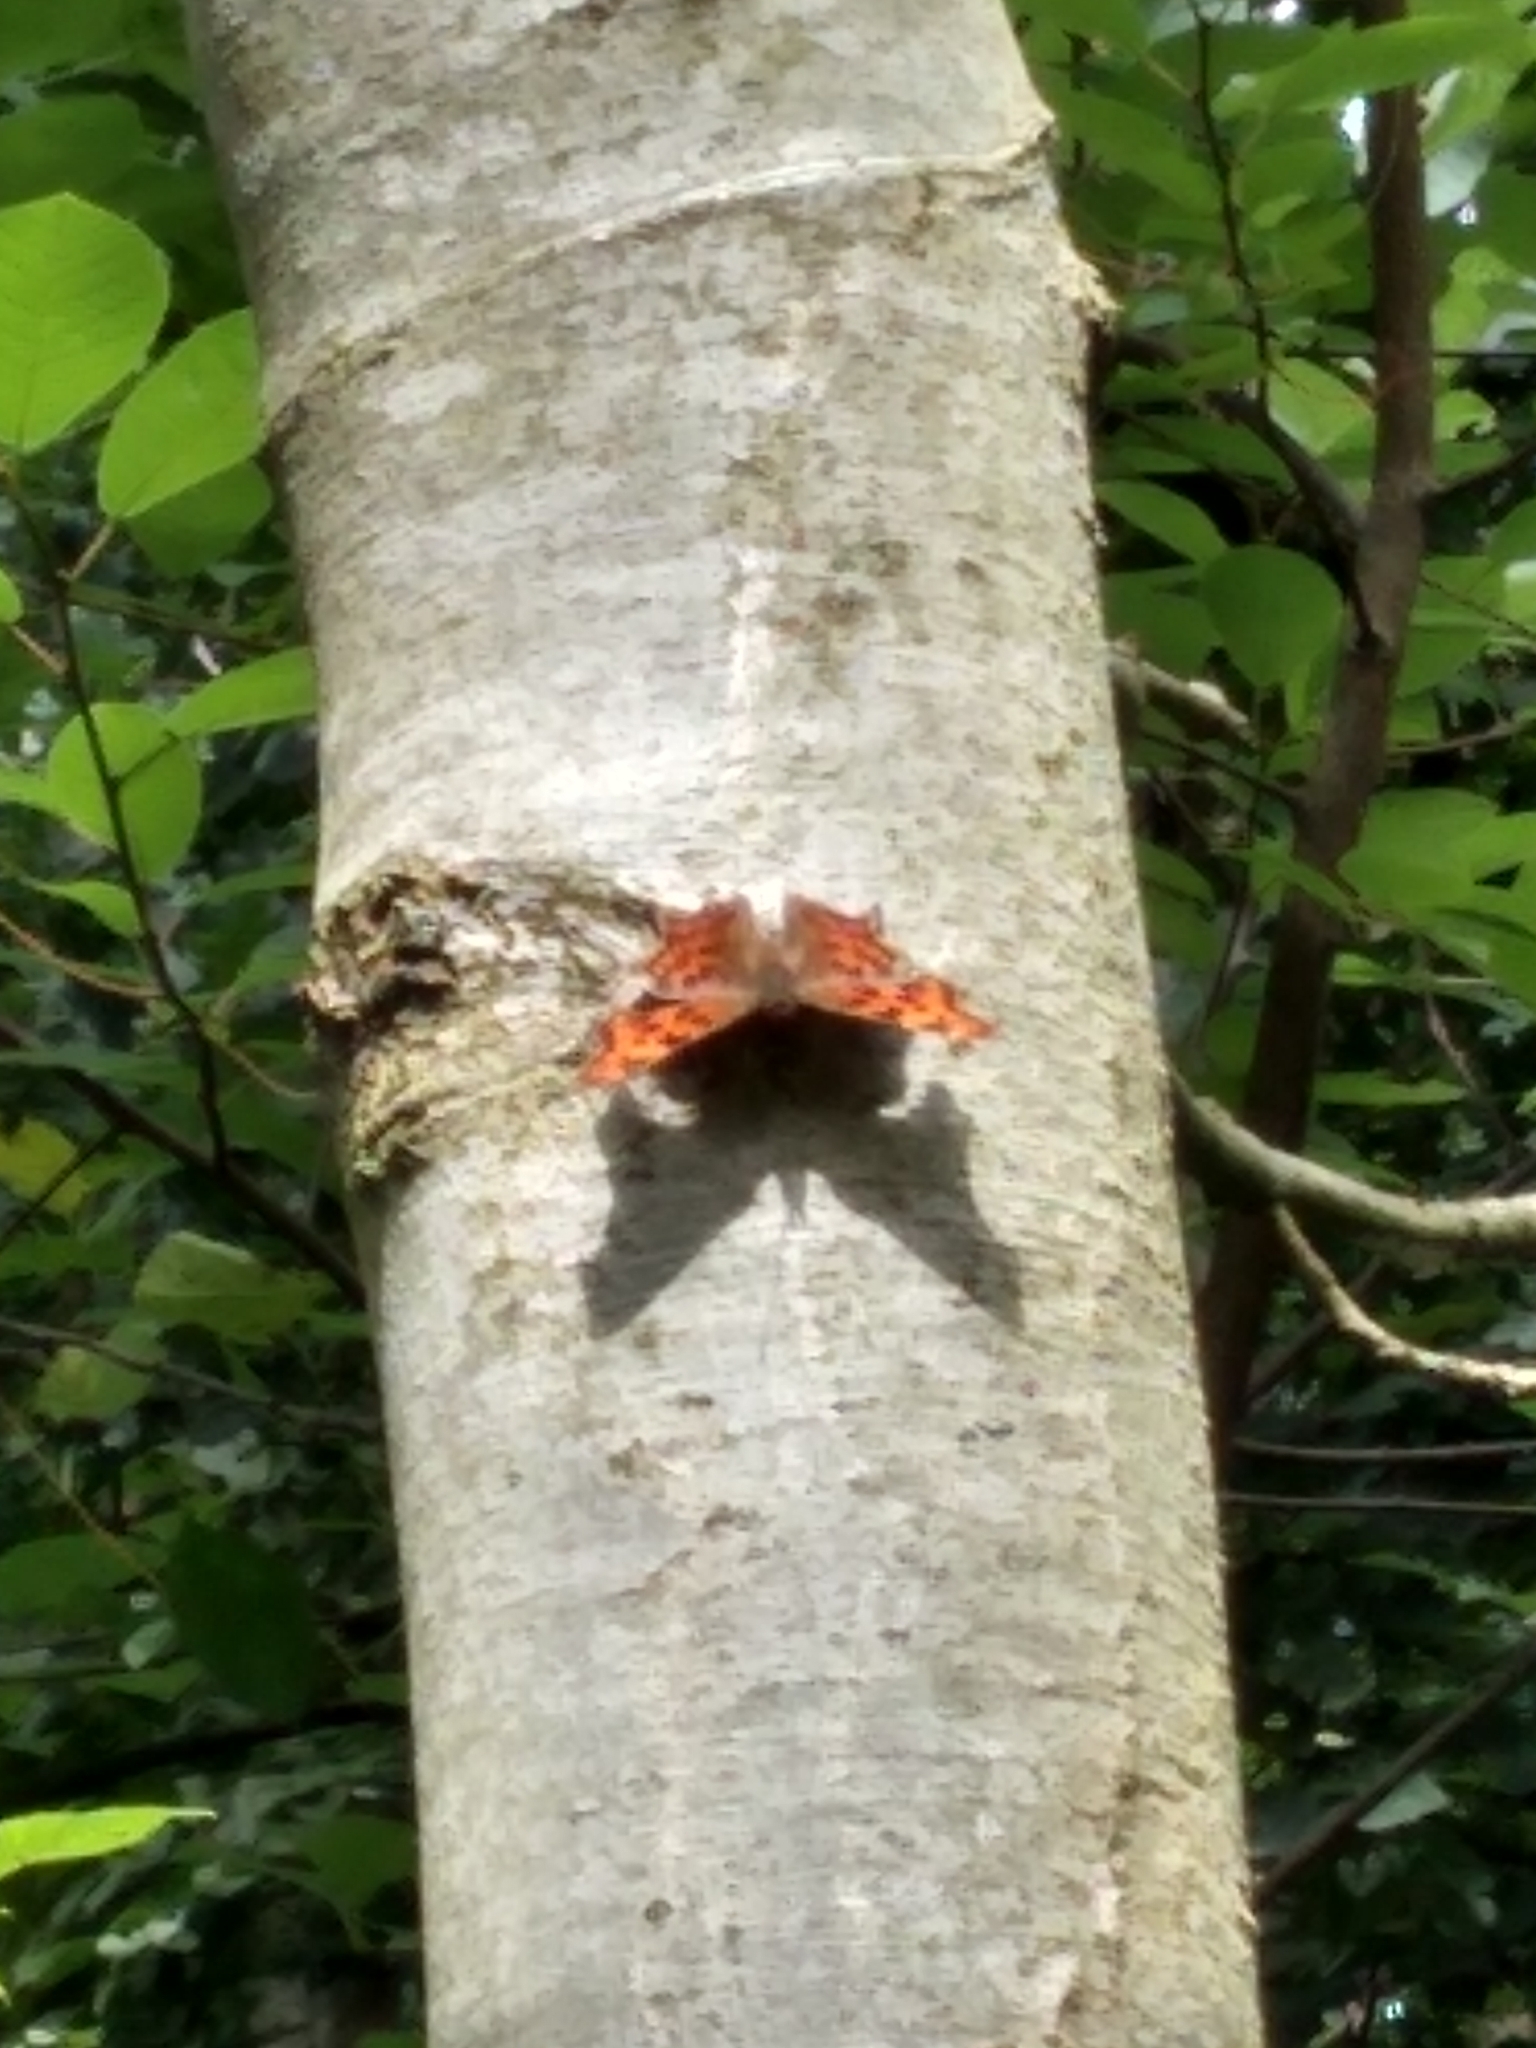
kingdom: Animalia
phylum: Arthropoda
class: Insecta
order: Lepidoptera
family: Nymphalidae
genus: Polygonia
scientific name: Polygonia c-album
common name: Comma
